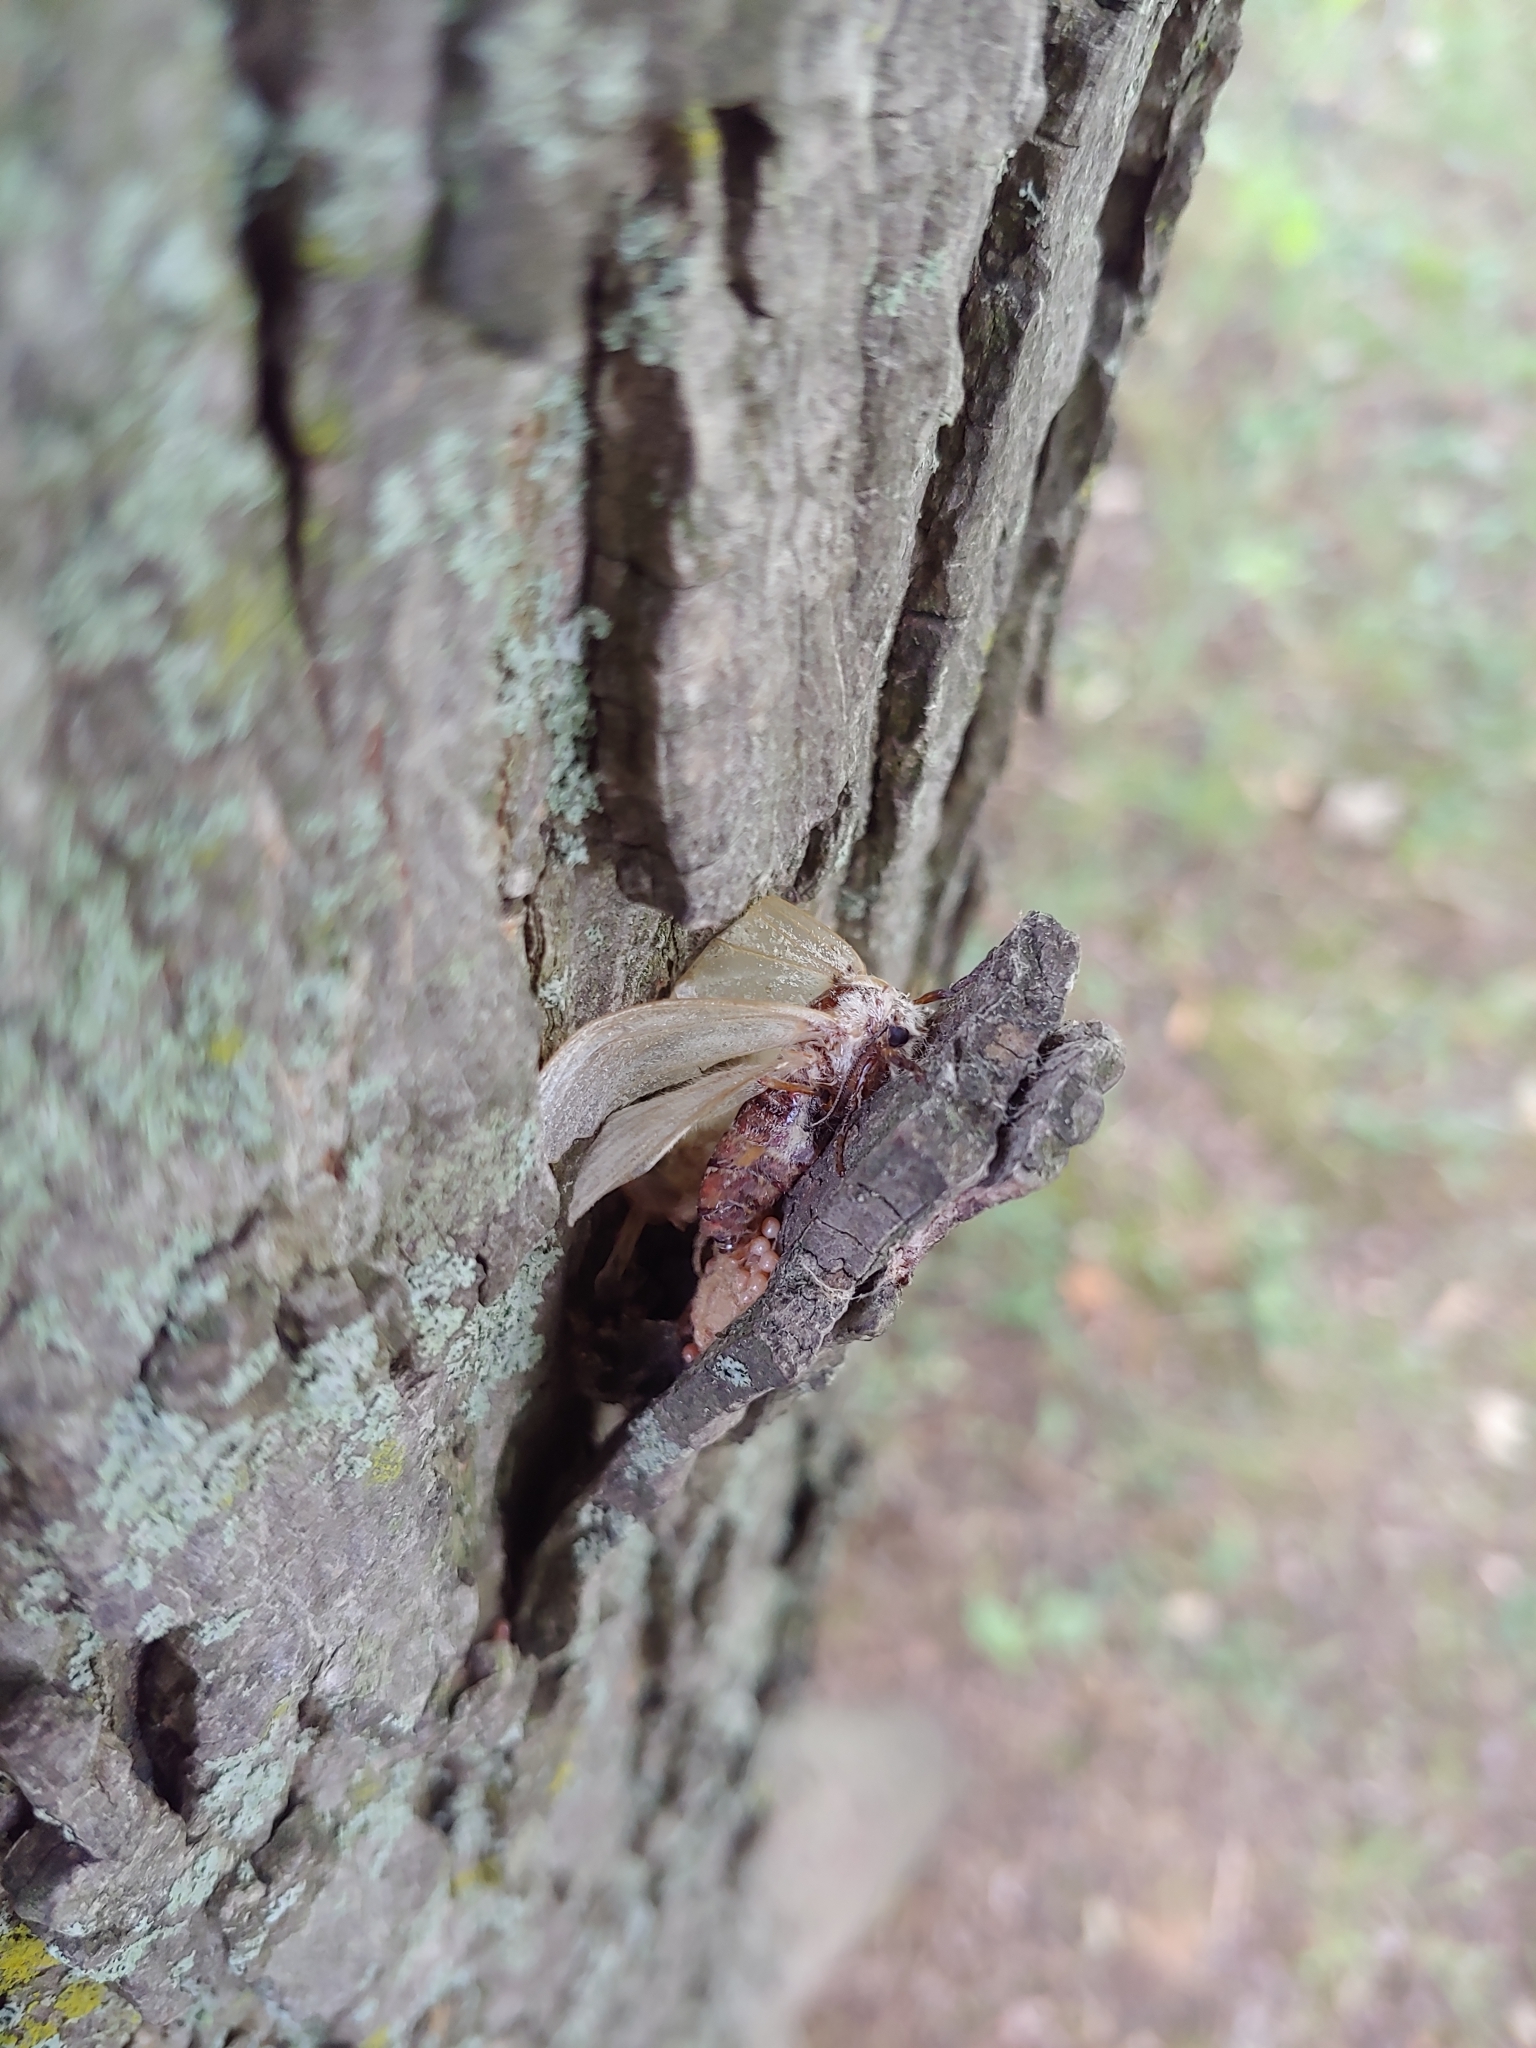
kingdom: Animalia
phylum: Arthropoda
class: Insecta
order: Lepidoptera
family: Erebidae
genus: Lymantria
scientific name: Lymantria dispar
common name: Gypsy moth
